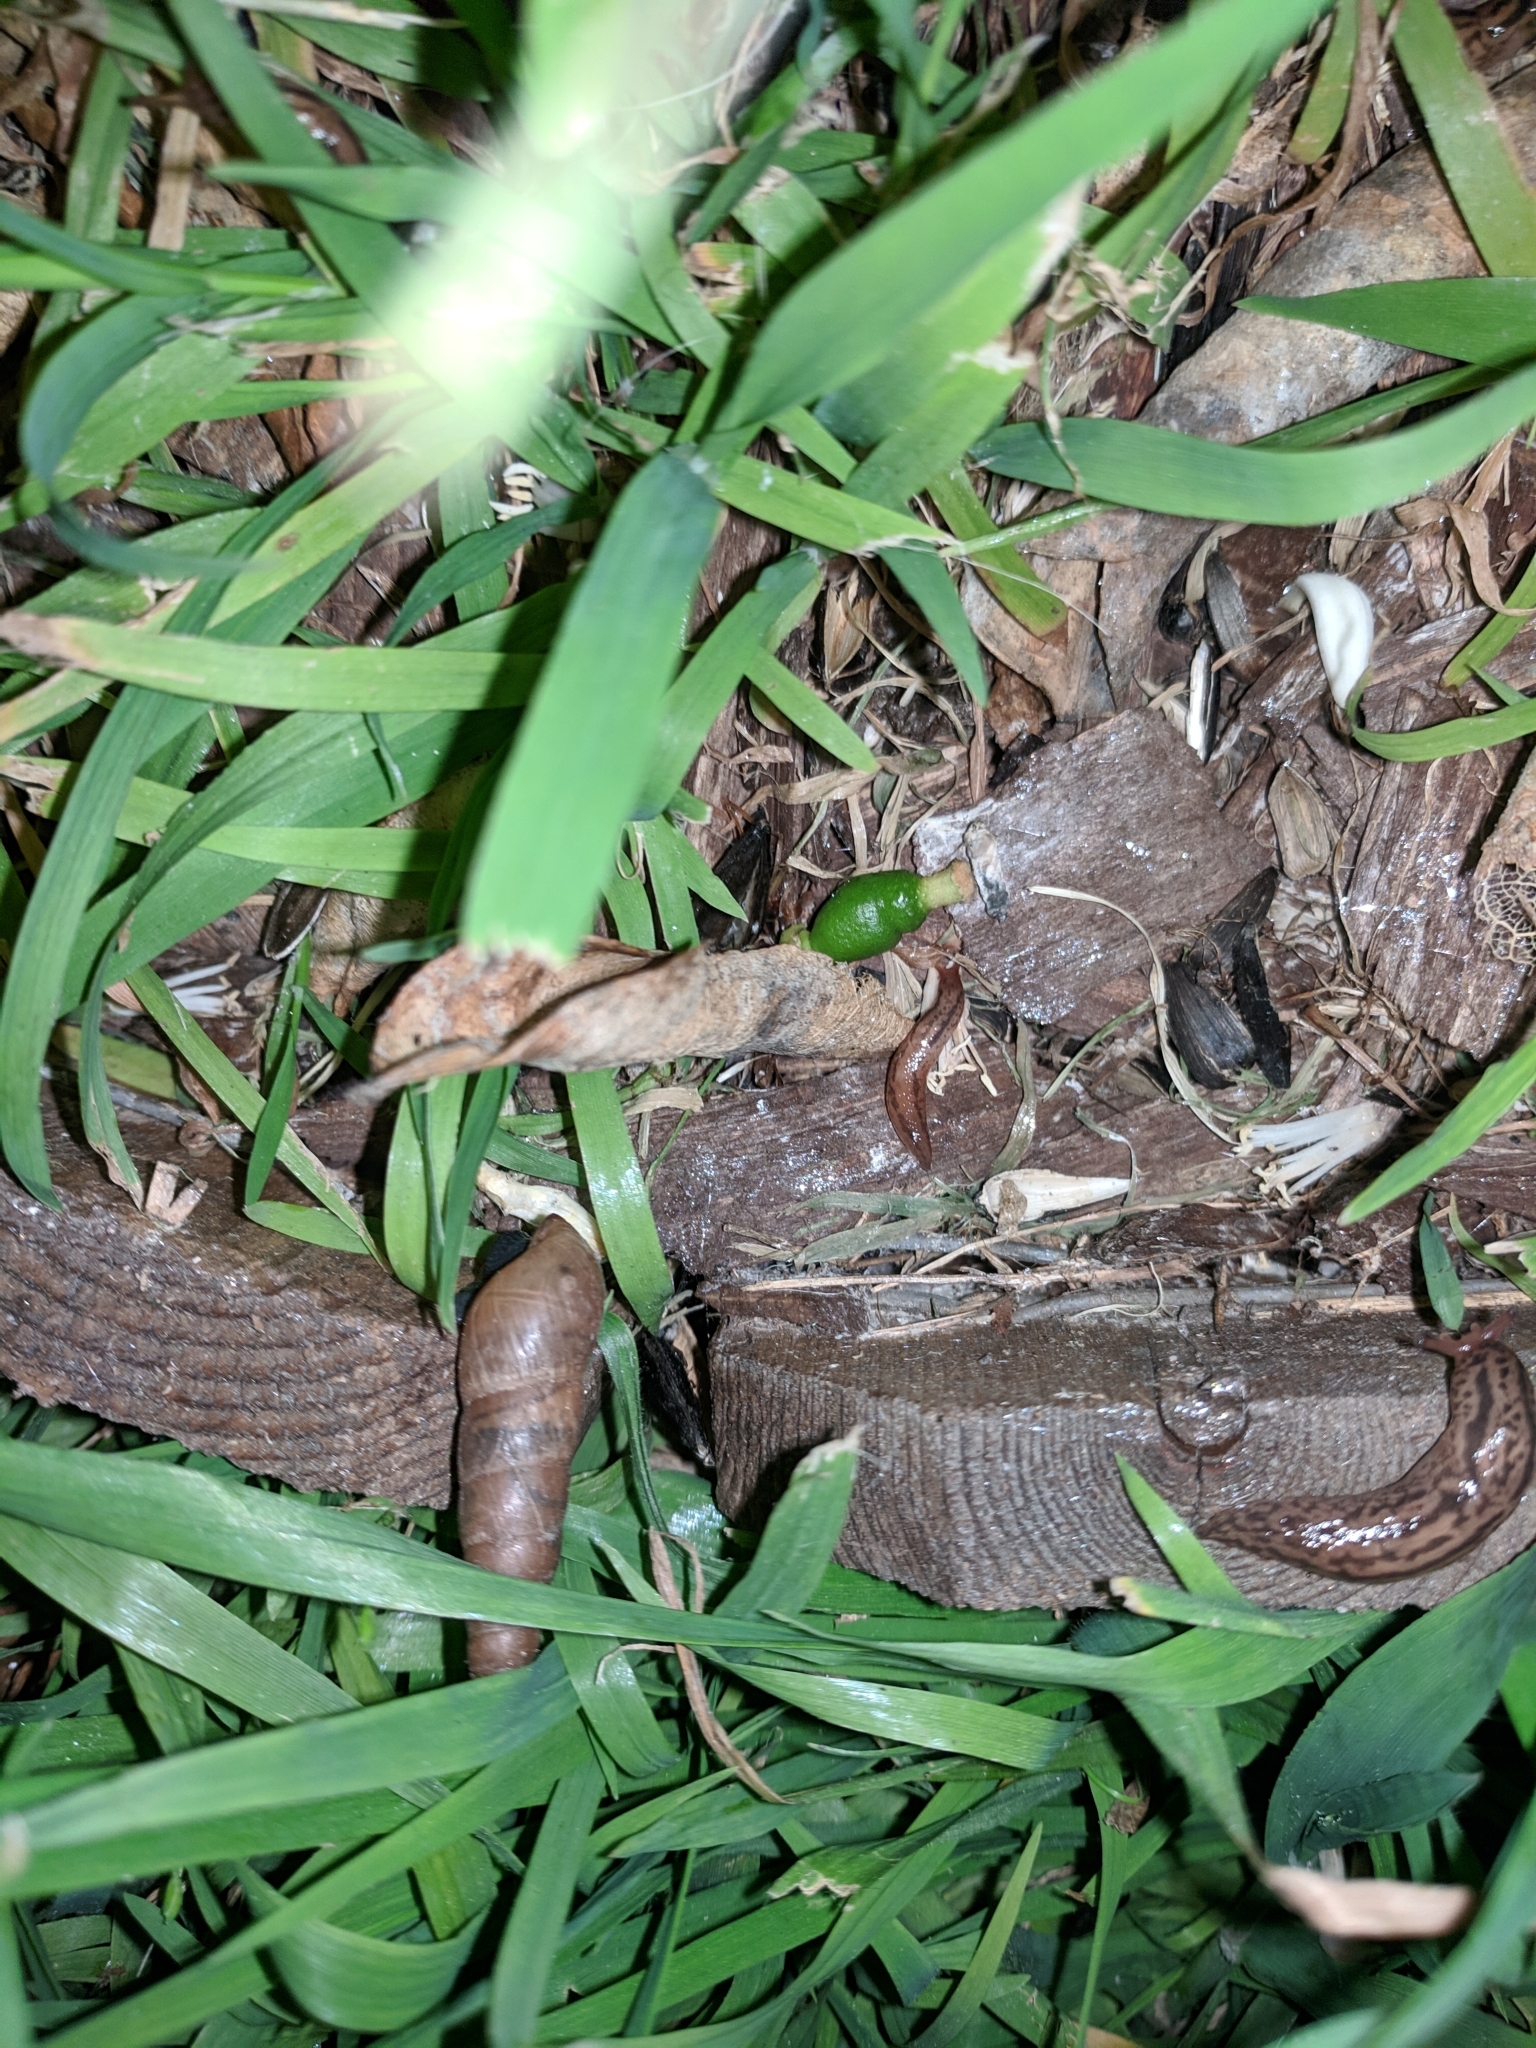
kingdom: Animalia
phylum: Mollusca
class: Gastropoda
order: Stylommatophora
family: Achatinidae
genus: Rumina
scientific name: Rumina decollata
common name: Decollate snail
